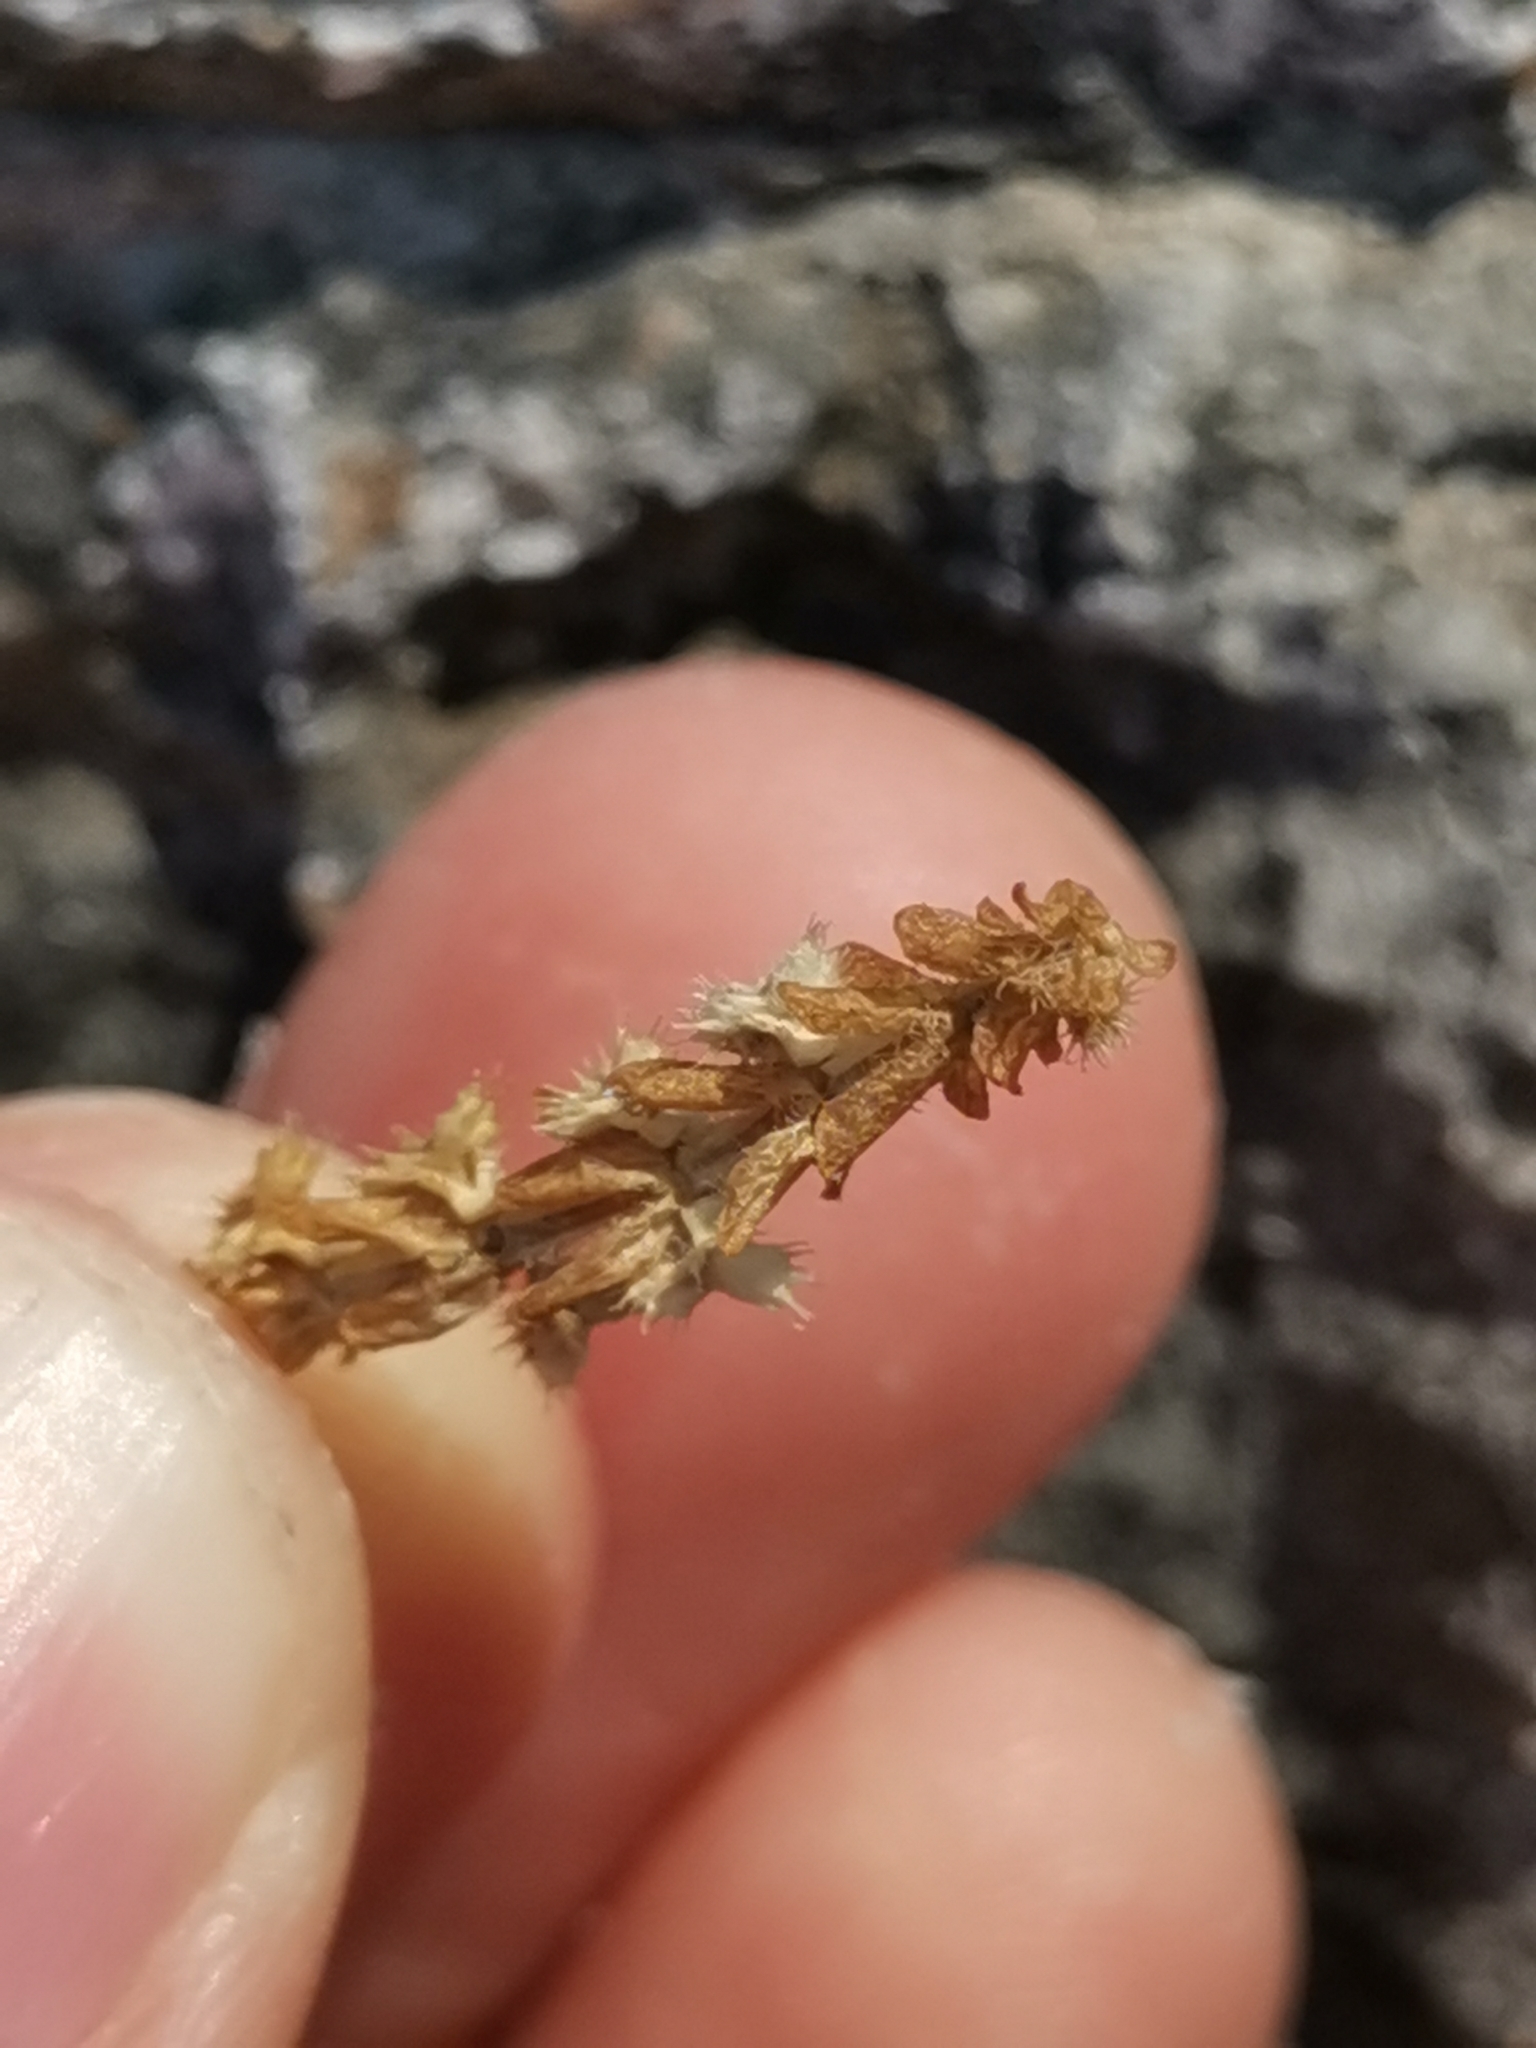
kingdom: Plantae
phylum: Tracheophyta
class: Magnoliopsida
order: Gentianales
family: Rubiaceae
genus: Valantia
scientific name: Valantia muralis
